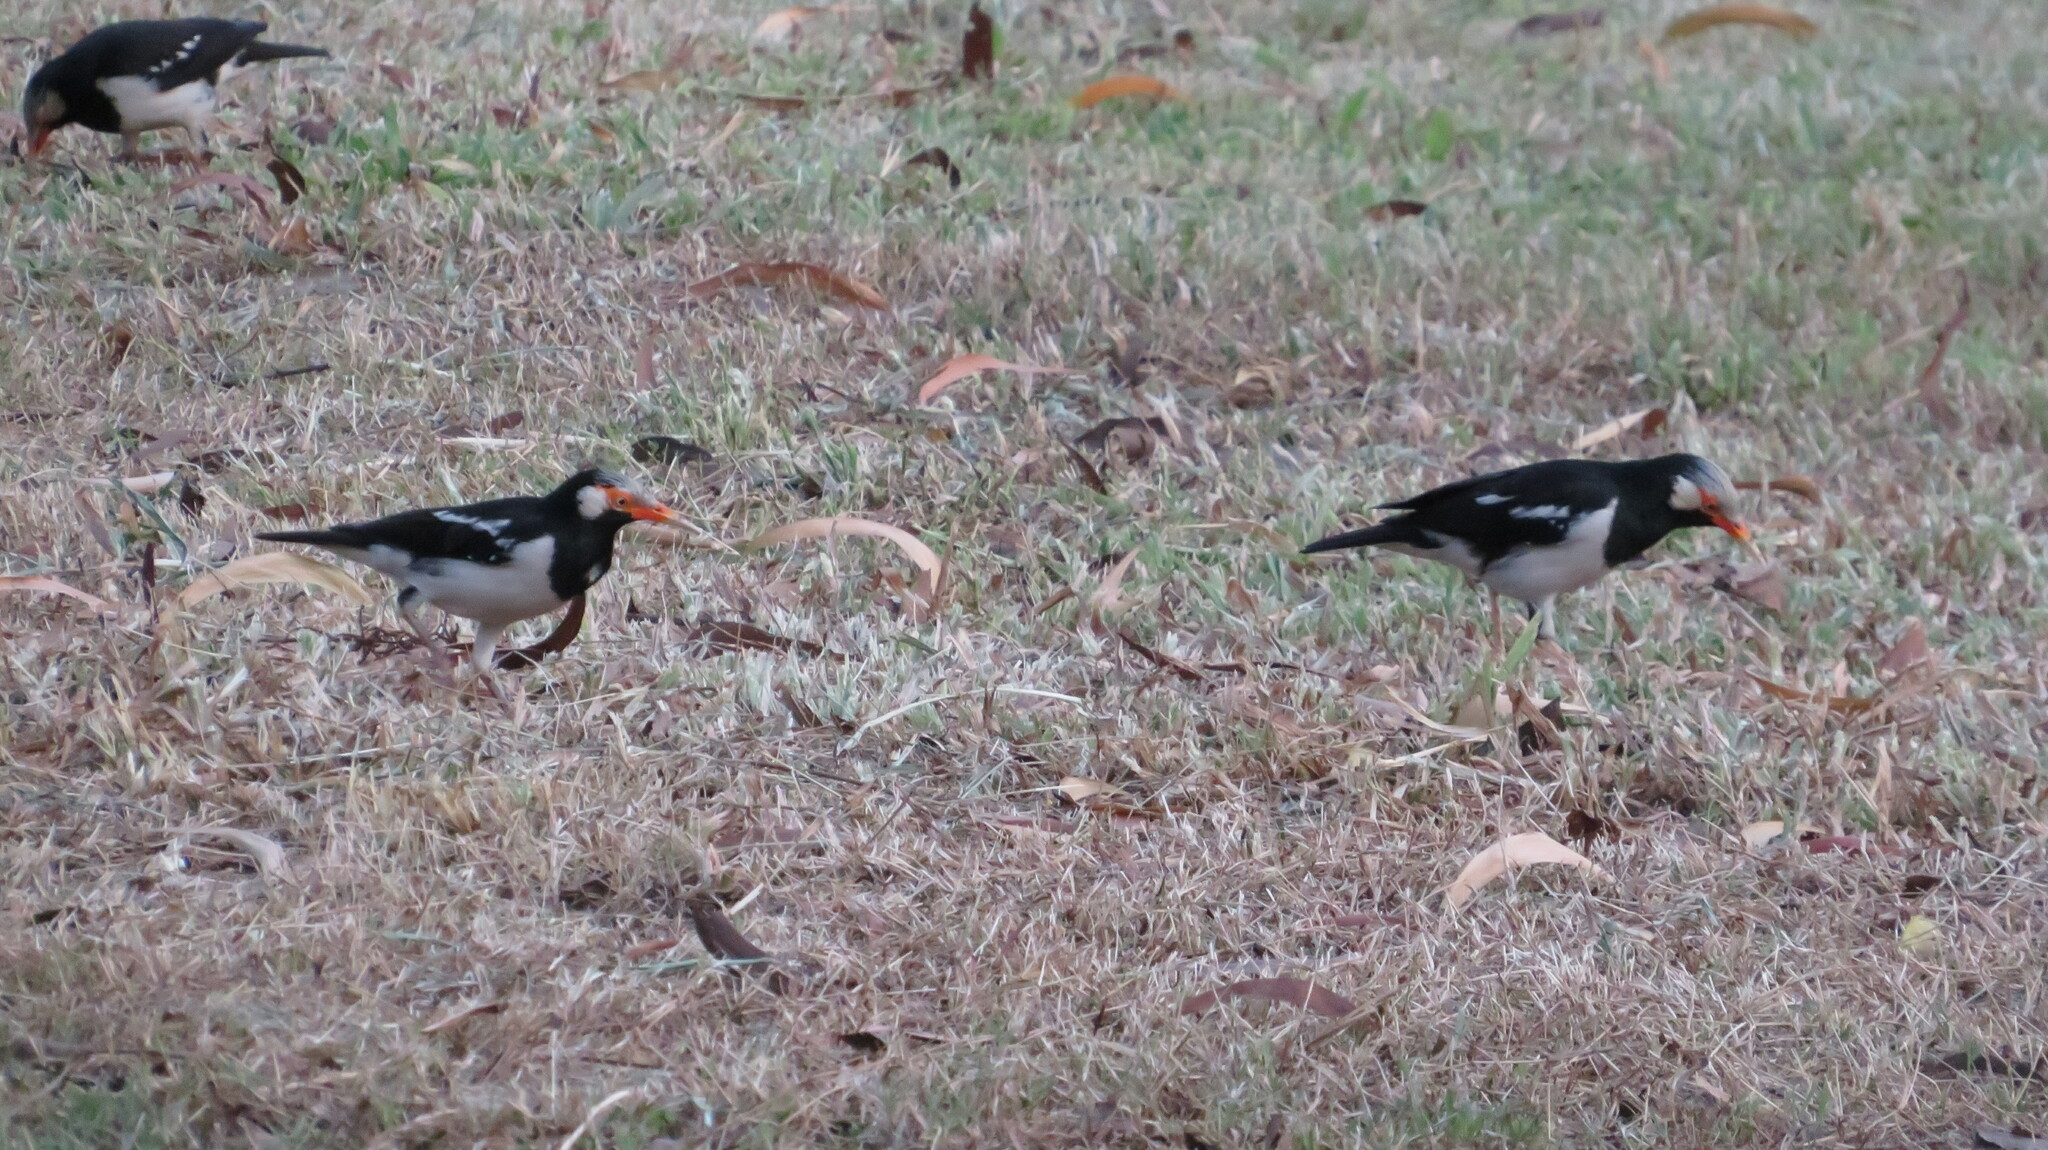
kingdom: Animalia
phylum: Chordata
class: Aves
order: Passeriformes
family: Sturnidae
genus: Gracupica
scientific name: Gracupica contra
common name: Pied myna
